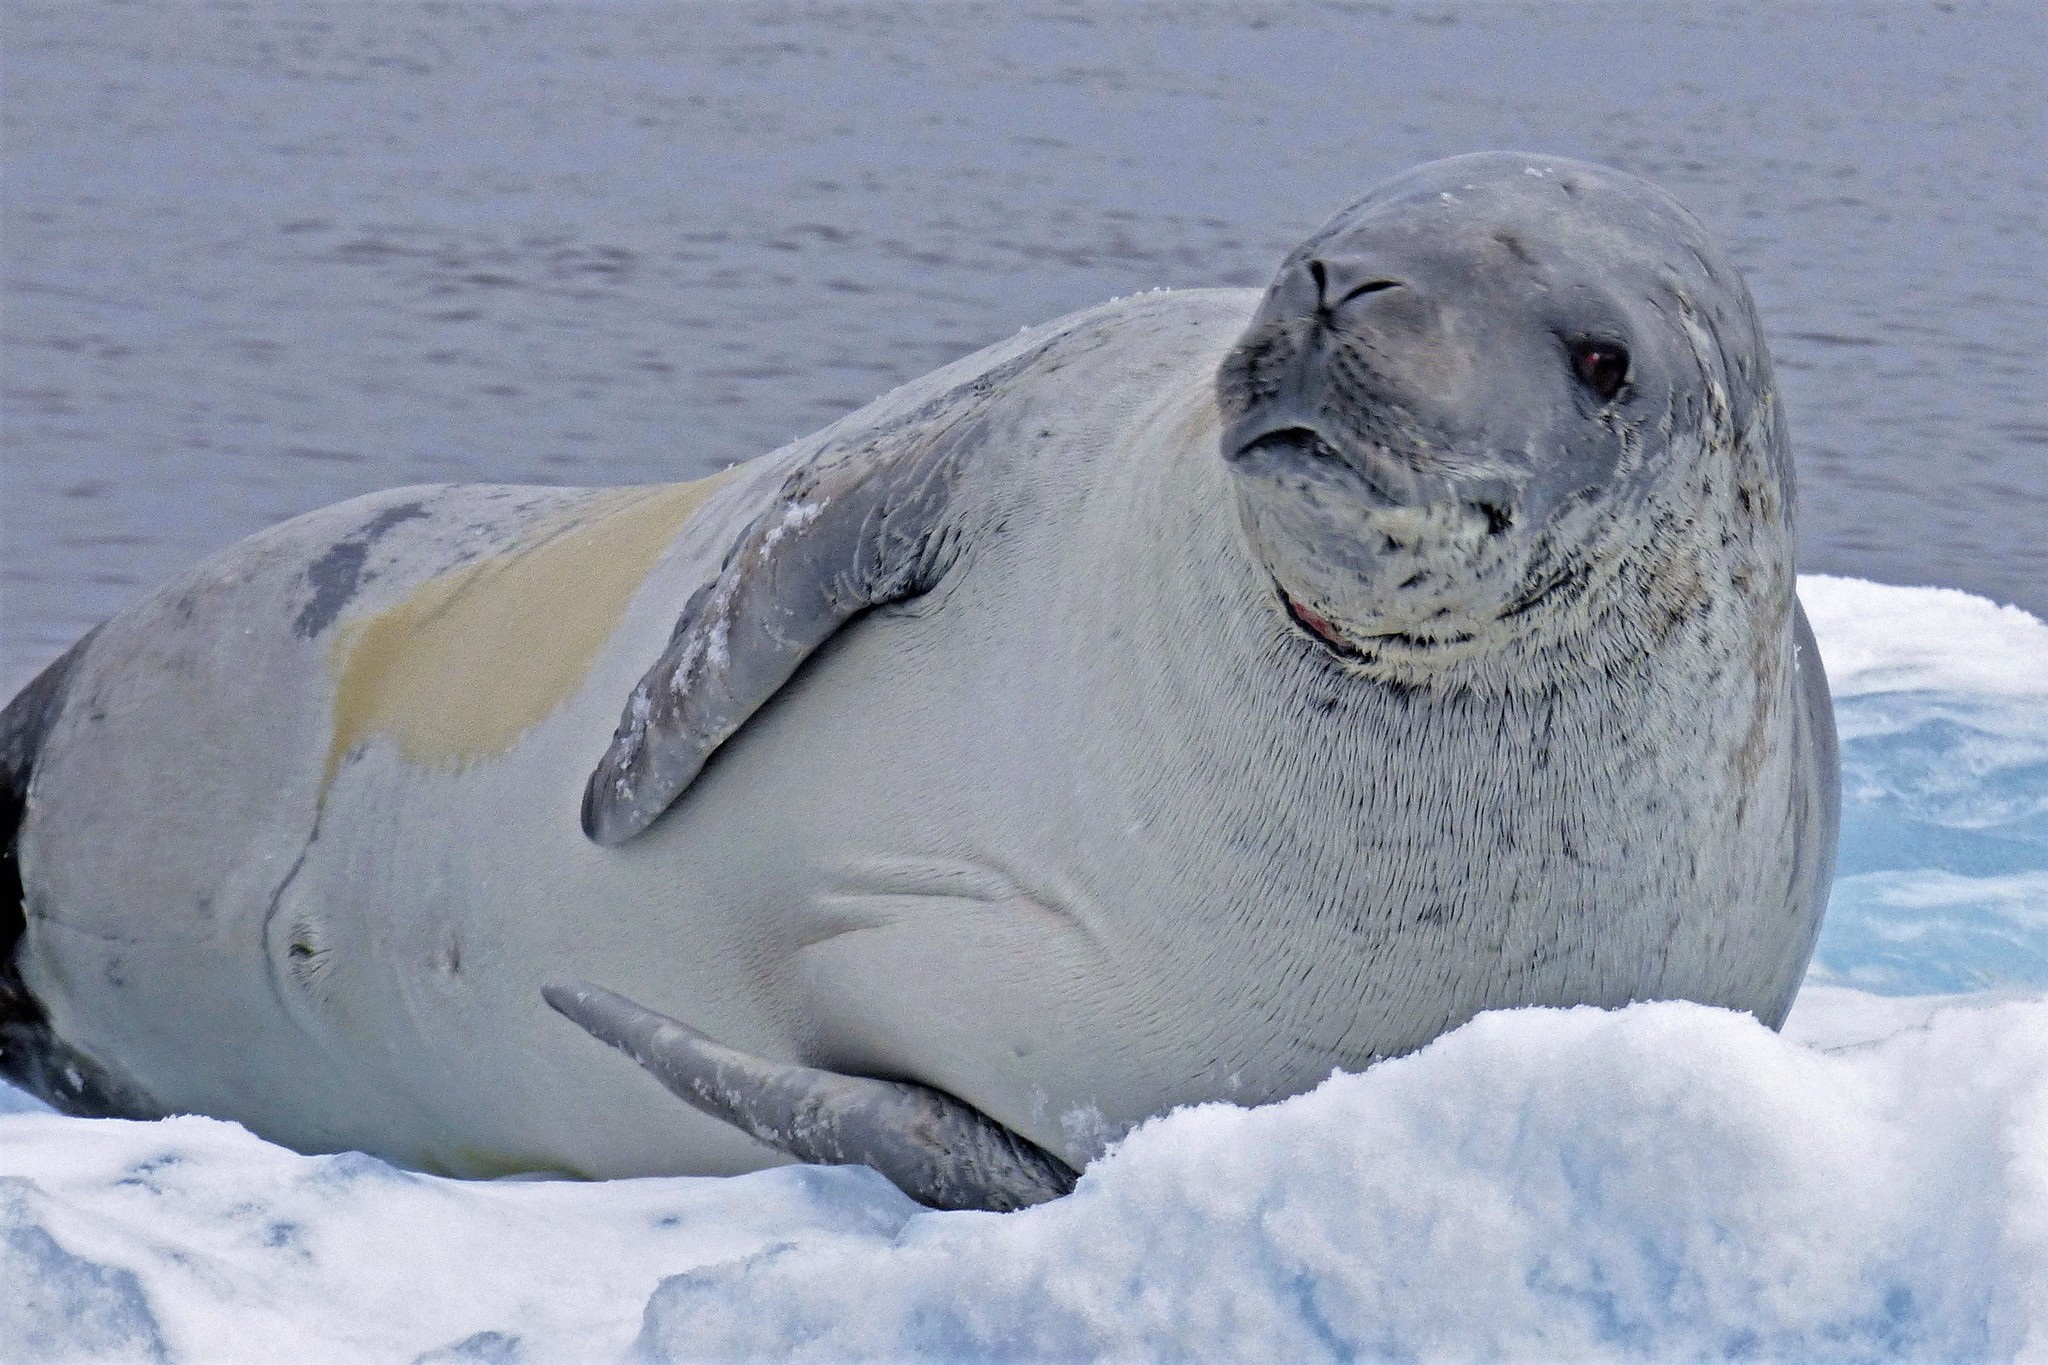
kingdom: Animalia
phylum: Chordata
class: Mammalia
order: Carnivora
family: Phocidae
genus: Lobodon
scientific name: Lobodon carcinophaga
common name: Crabeater seal
